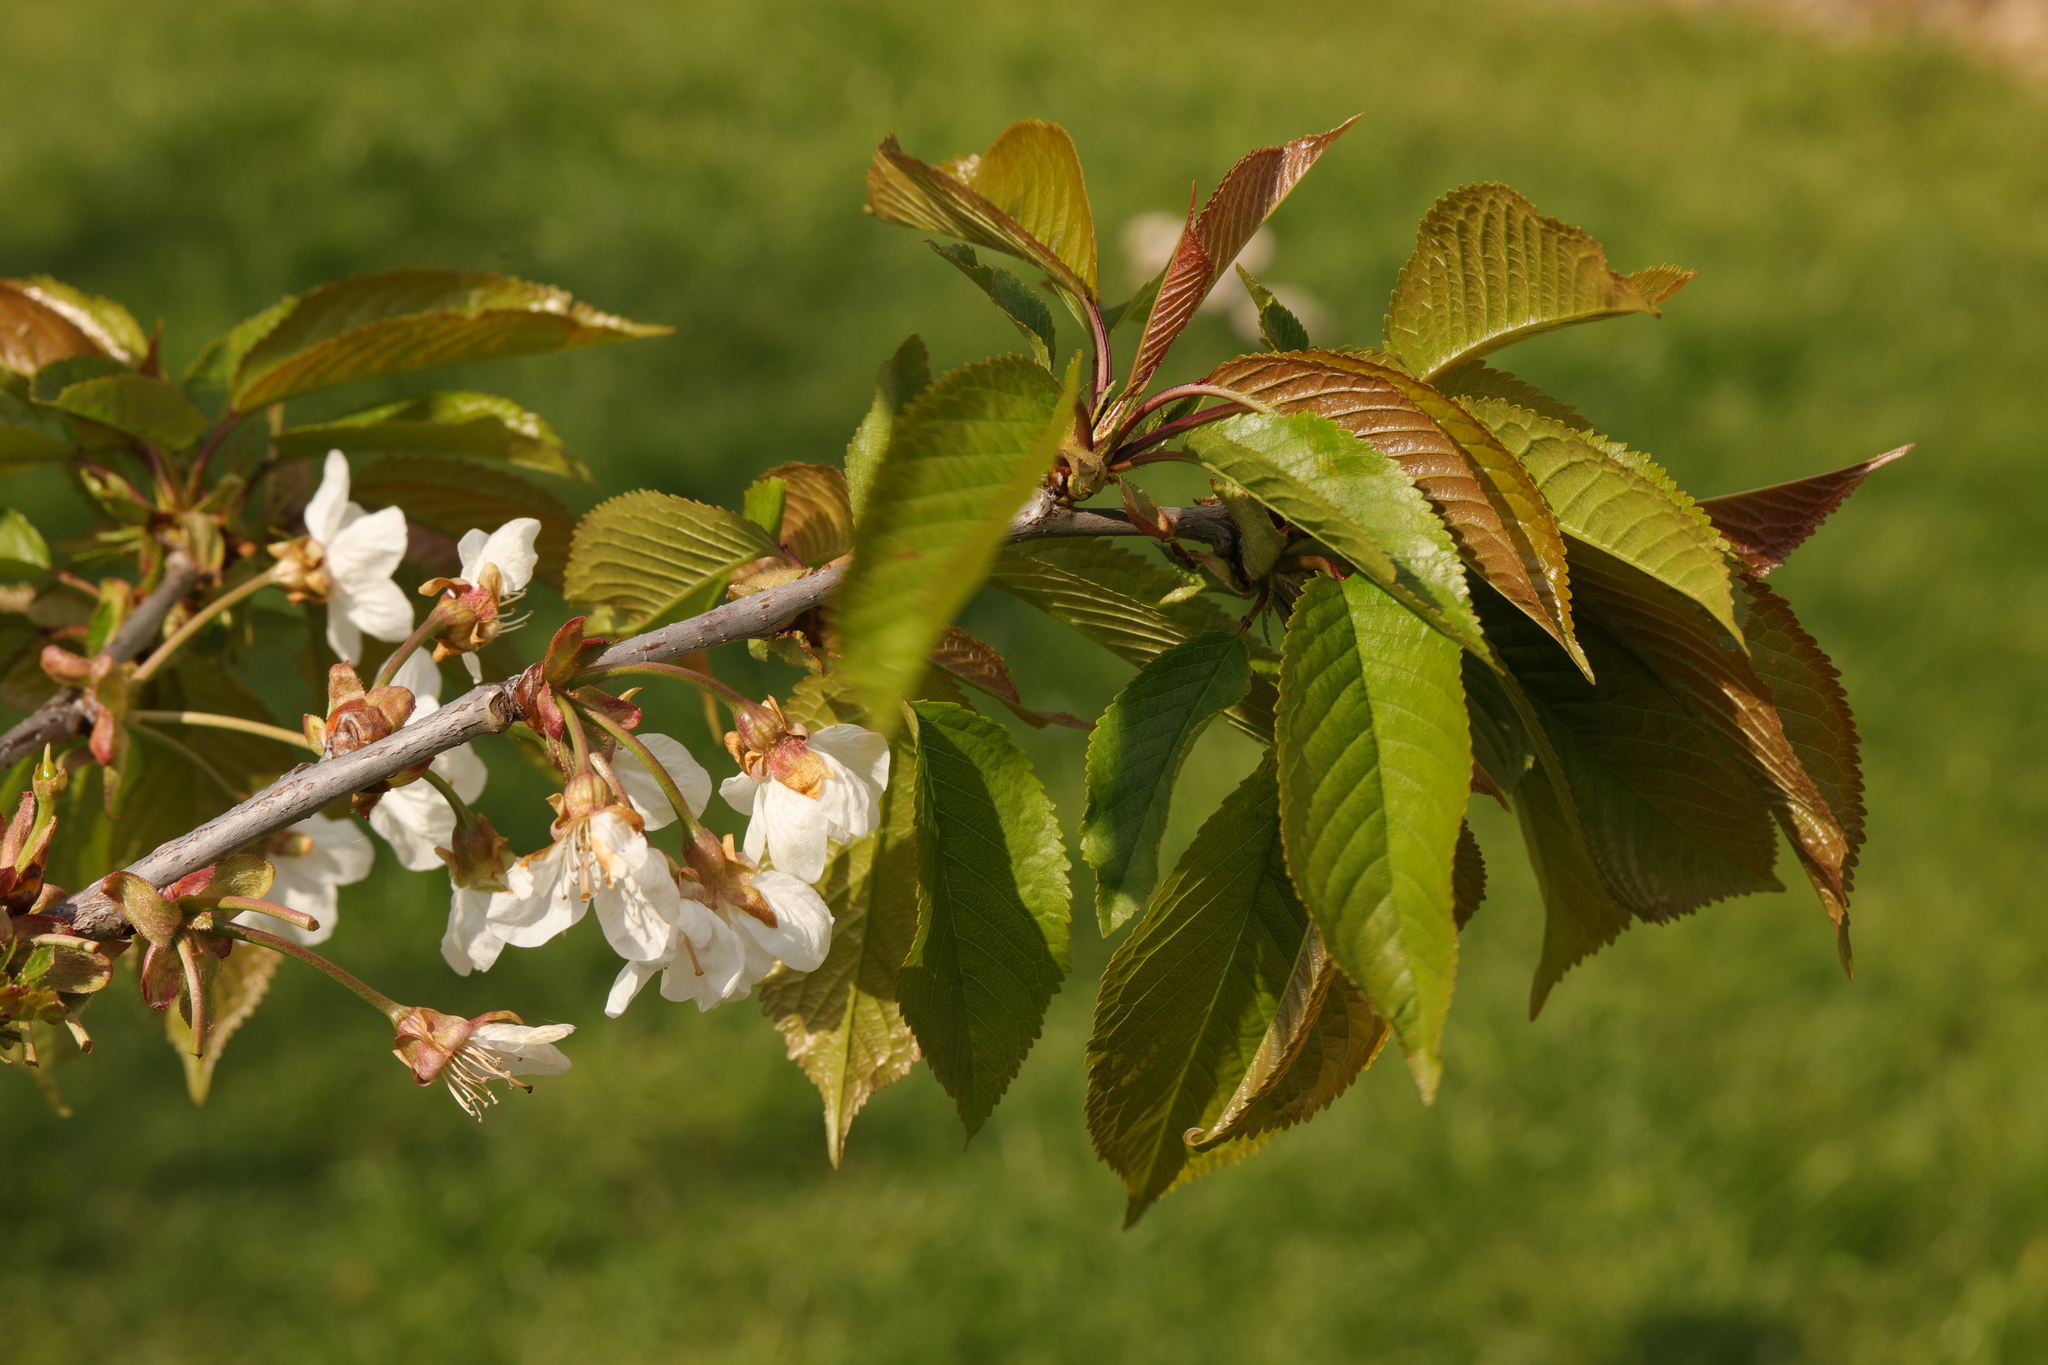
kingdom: Plantae
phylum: Tracheophyta
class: Magnoliopsida
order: Rosales
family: Rosaceae
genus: Prunus
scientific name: Prunus avium
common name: Sweet cherry
